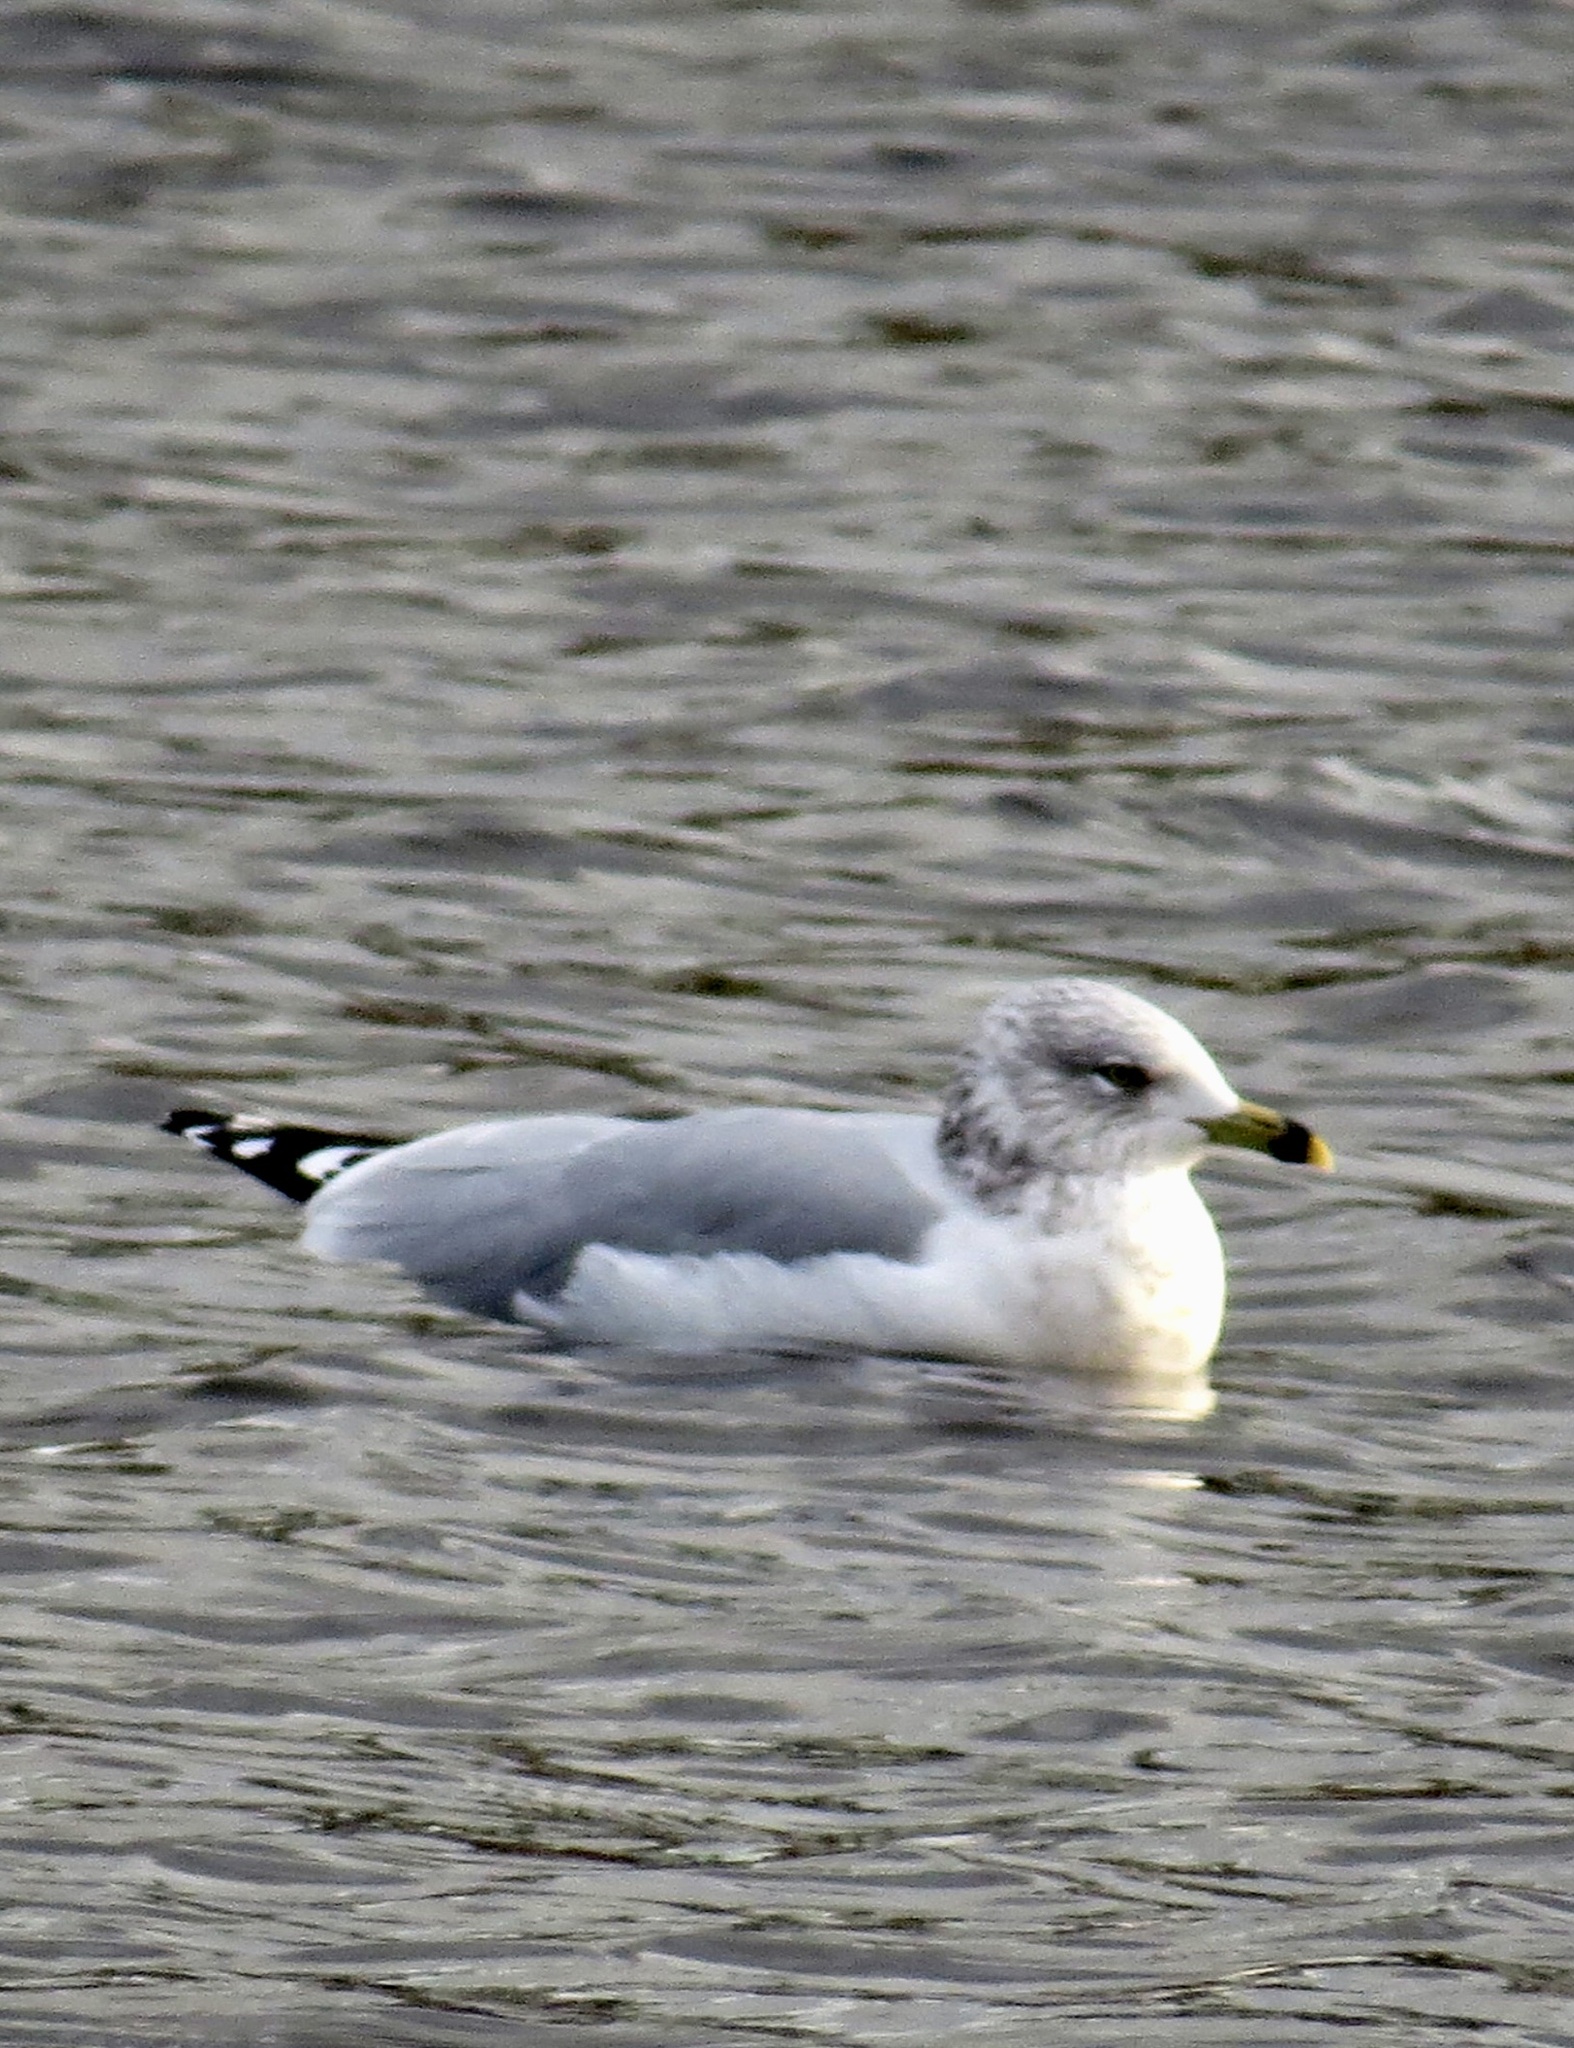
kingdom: Animalia
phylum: Chordata
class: Aves
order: Charadriiformes
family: Laridae
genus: Larus
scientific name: Larus delawarensis
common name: Ring-billed gull
